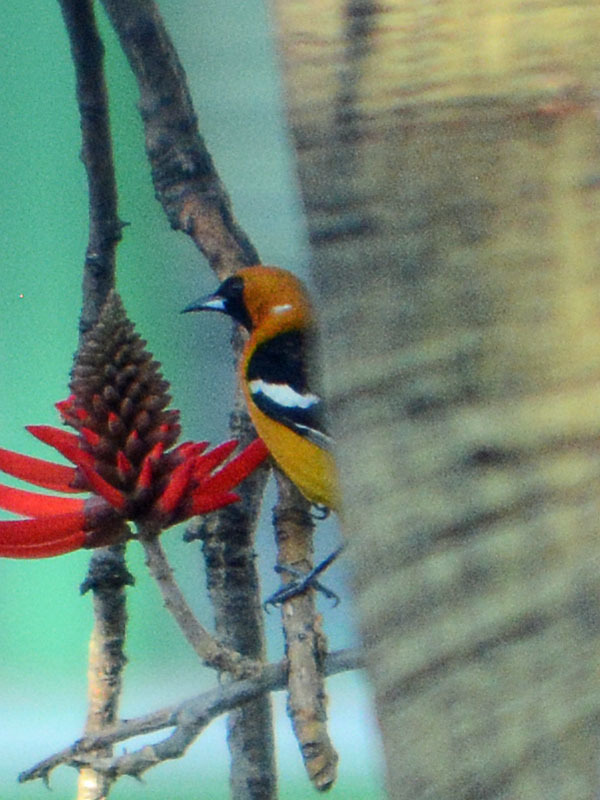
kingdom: Animalia
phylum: Chordata
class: Aves
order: Passeriformes
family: Icteridae
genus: Icterus
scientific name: Icterus cucullatus
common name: Hooded oriole
